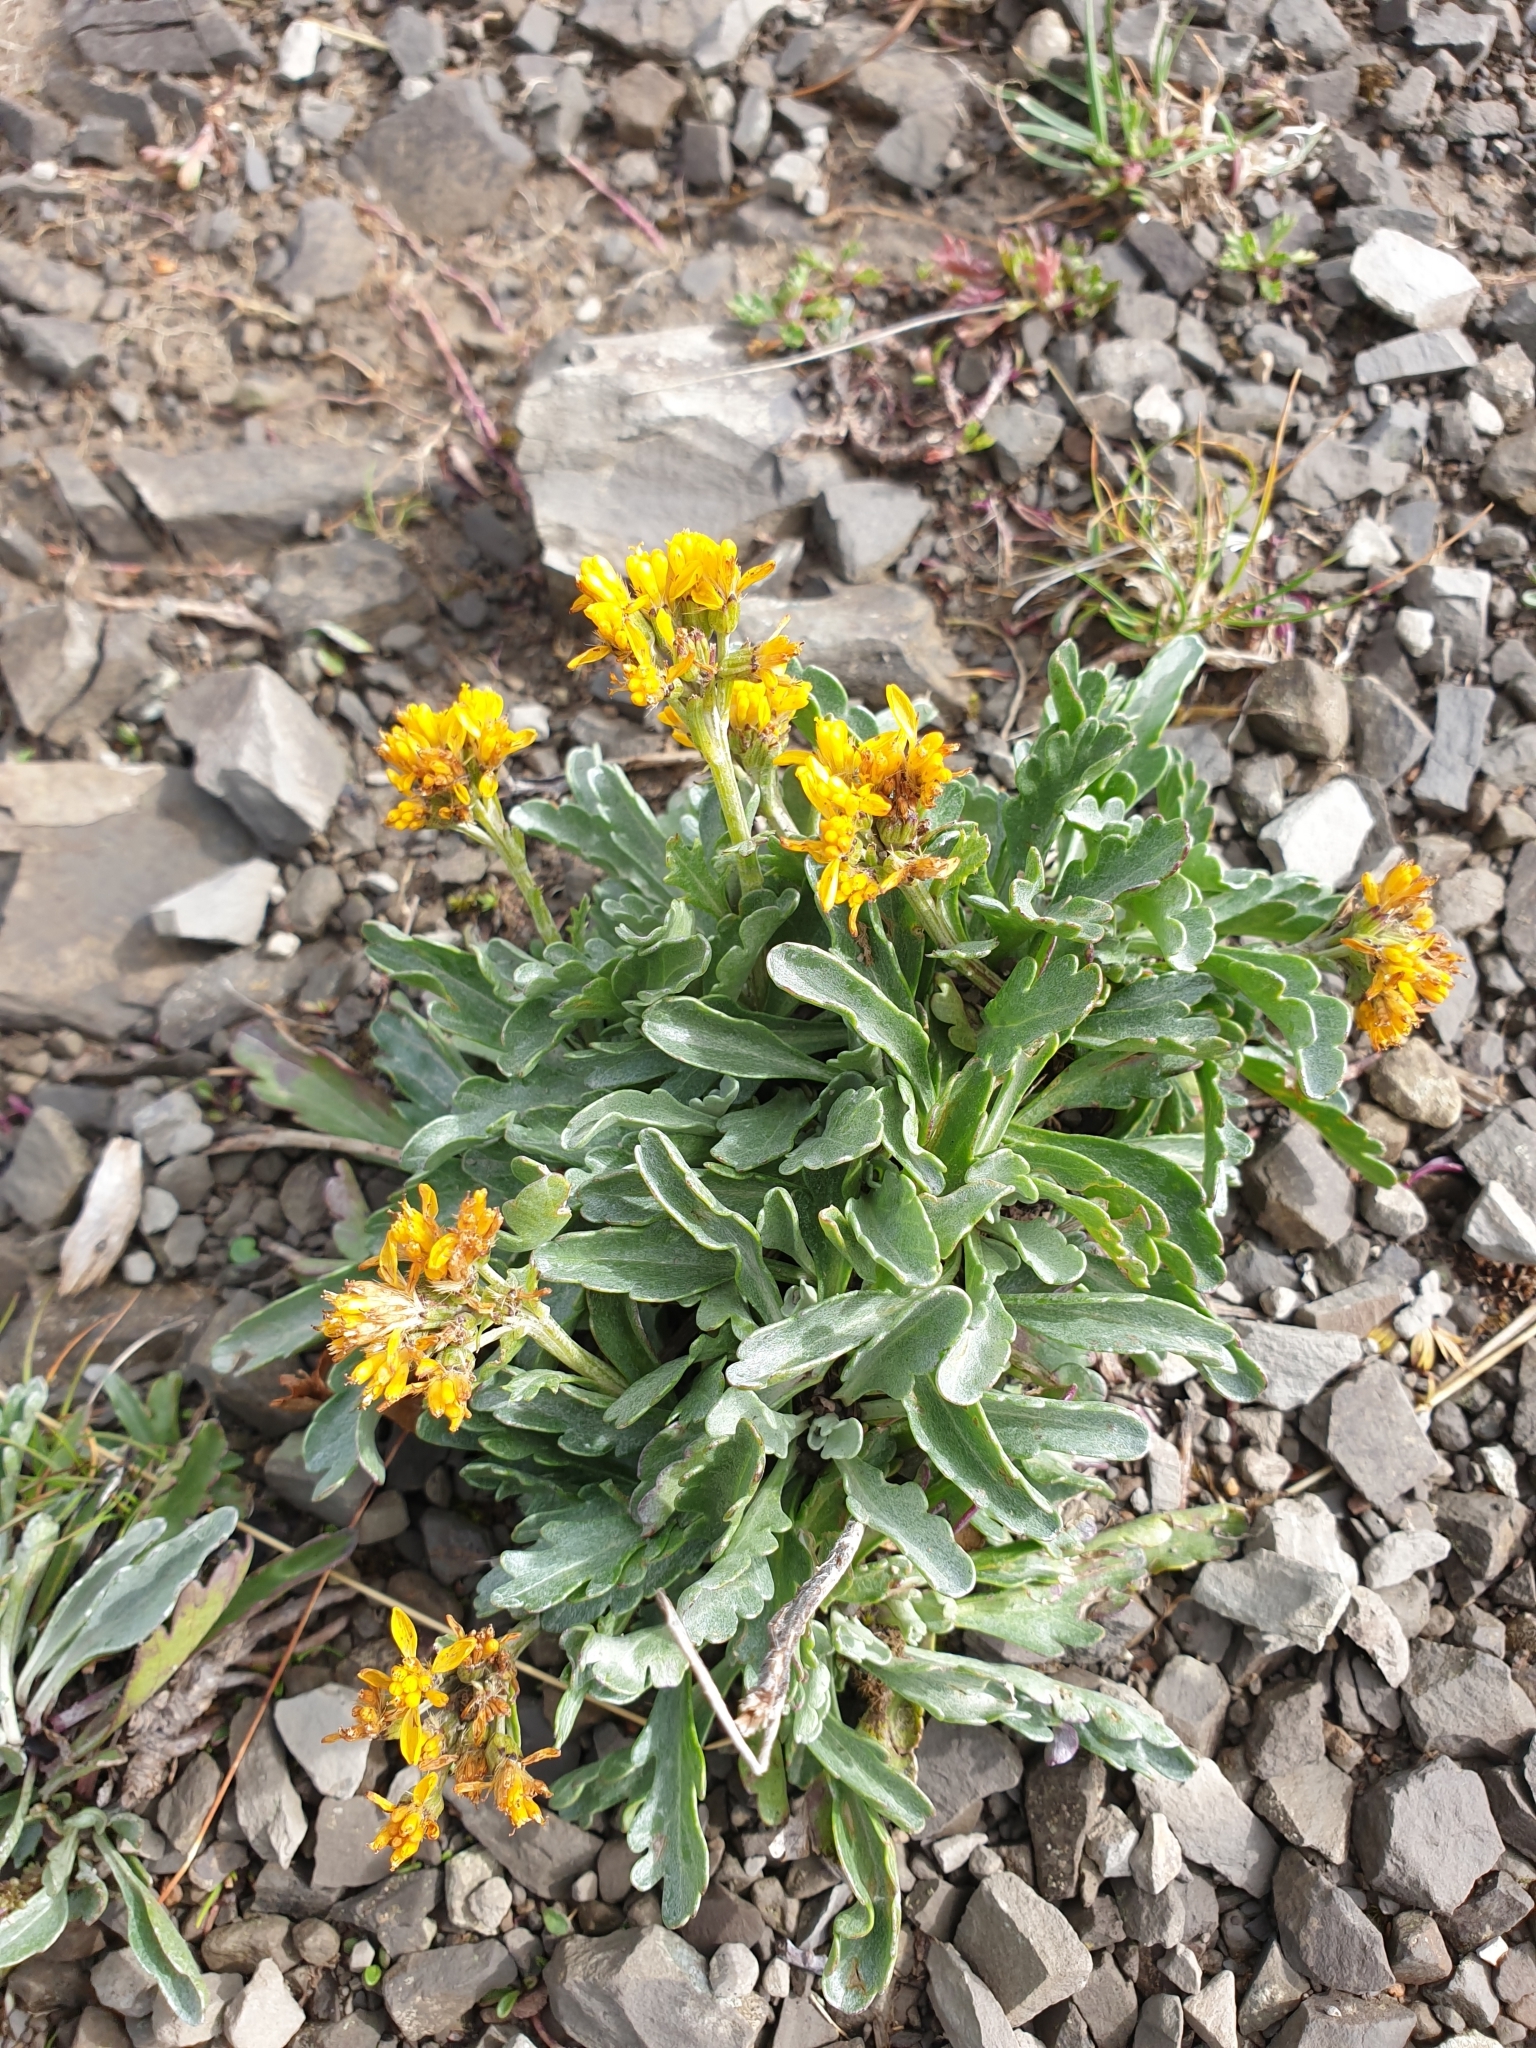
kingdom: Plantae
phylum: Tracheophyta
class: Magnoliopsida
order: Asterales
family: Asteraceae
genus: Jacobaea
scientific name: Jacobaea carniolica
